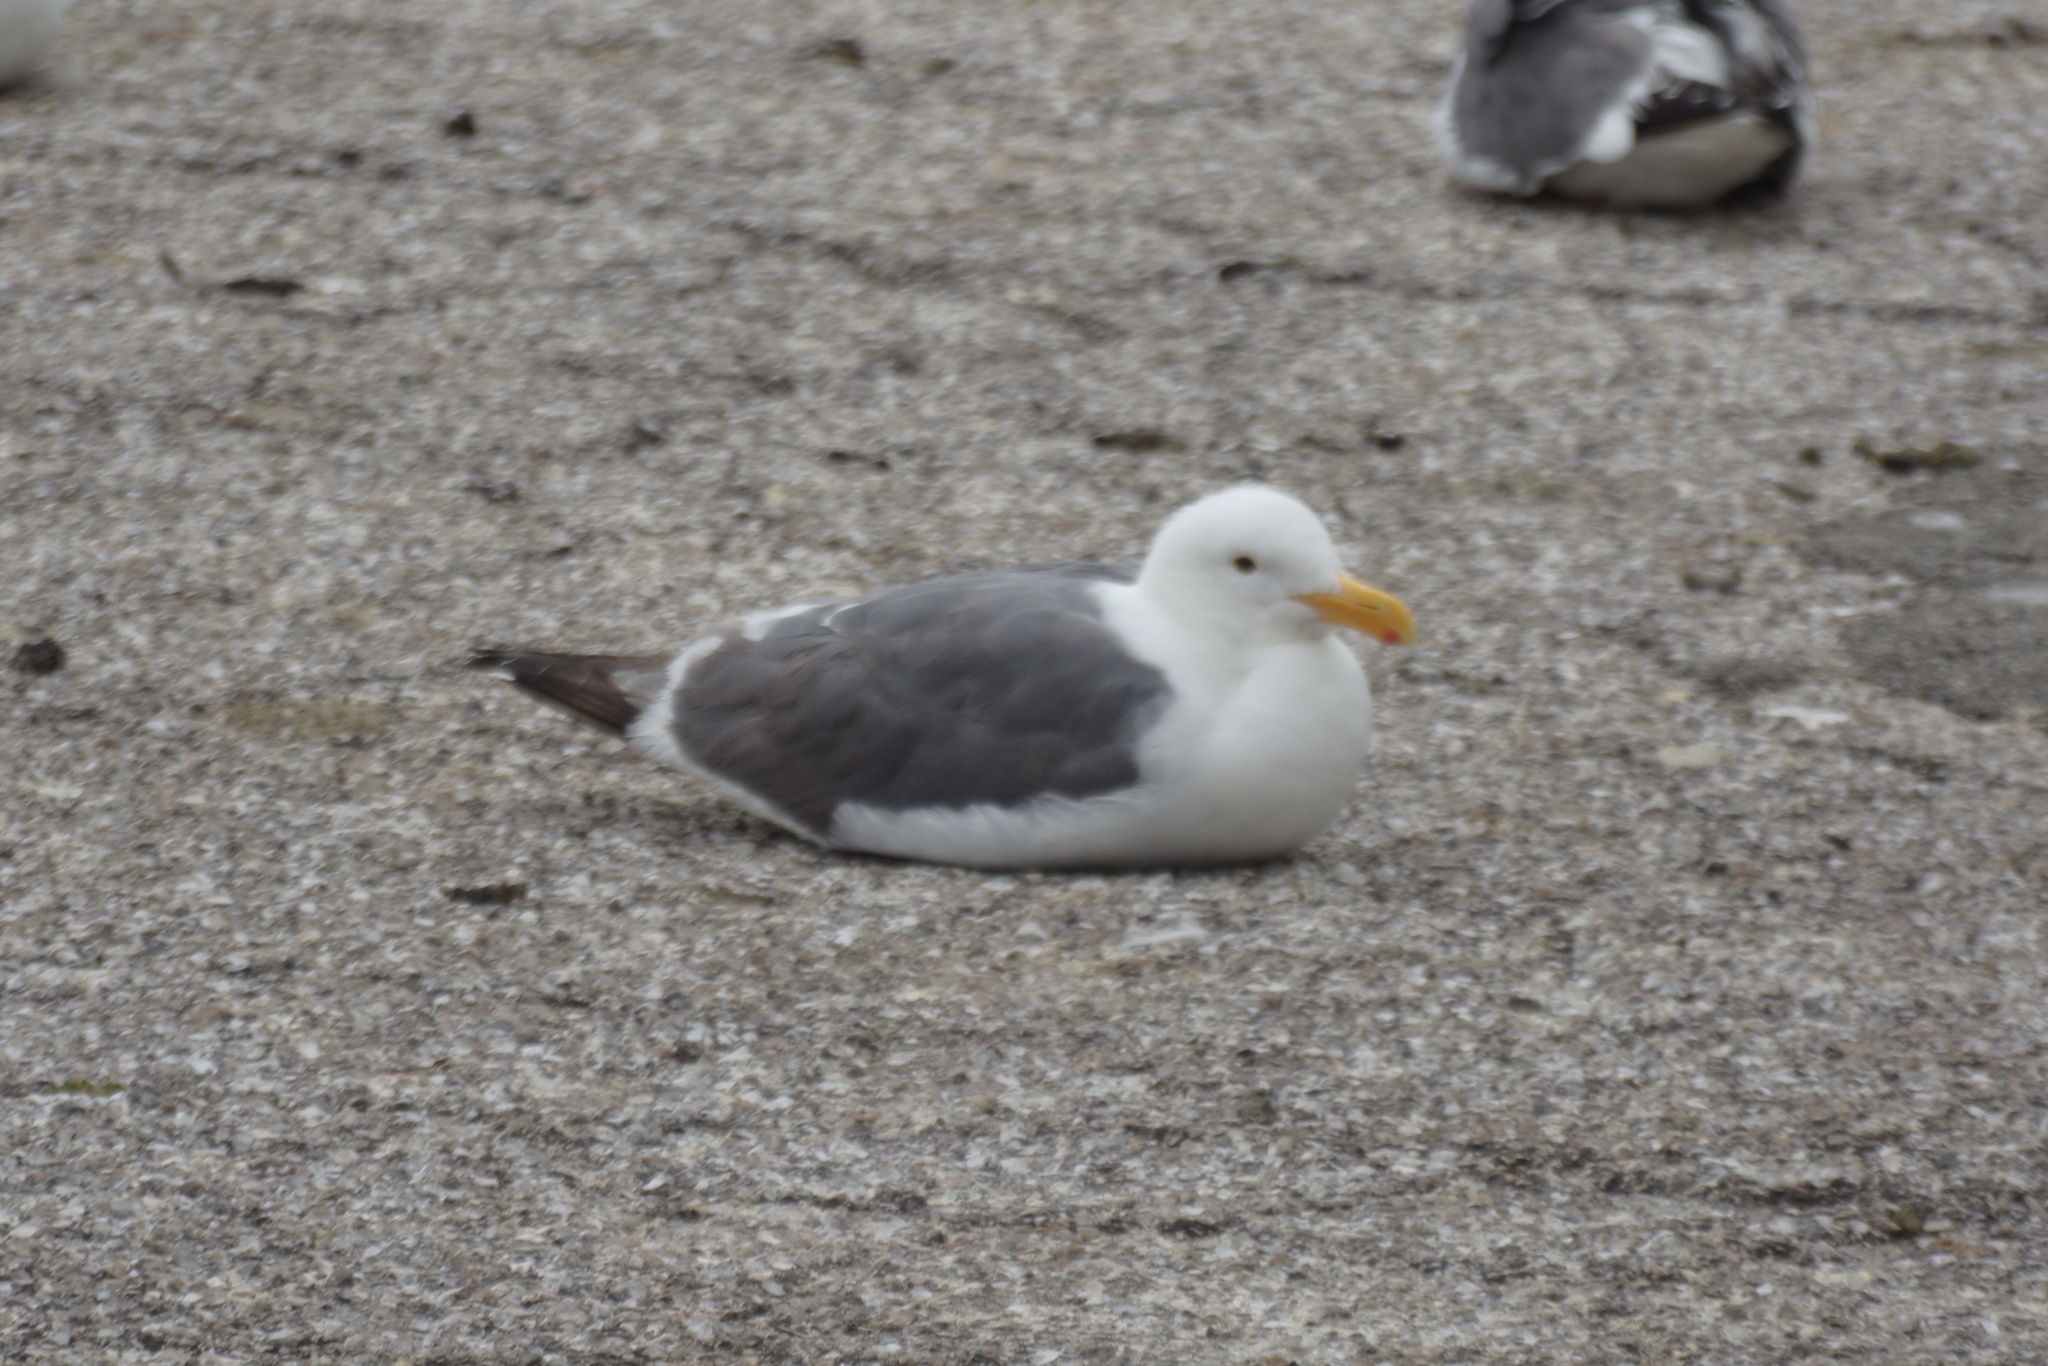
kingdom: Animalia
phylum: Chordata
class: Aves
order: Charadriiformes
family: Laridae
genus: Larus
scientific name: Larus occidentalis
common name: Western gull
